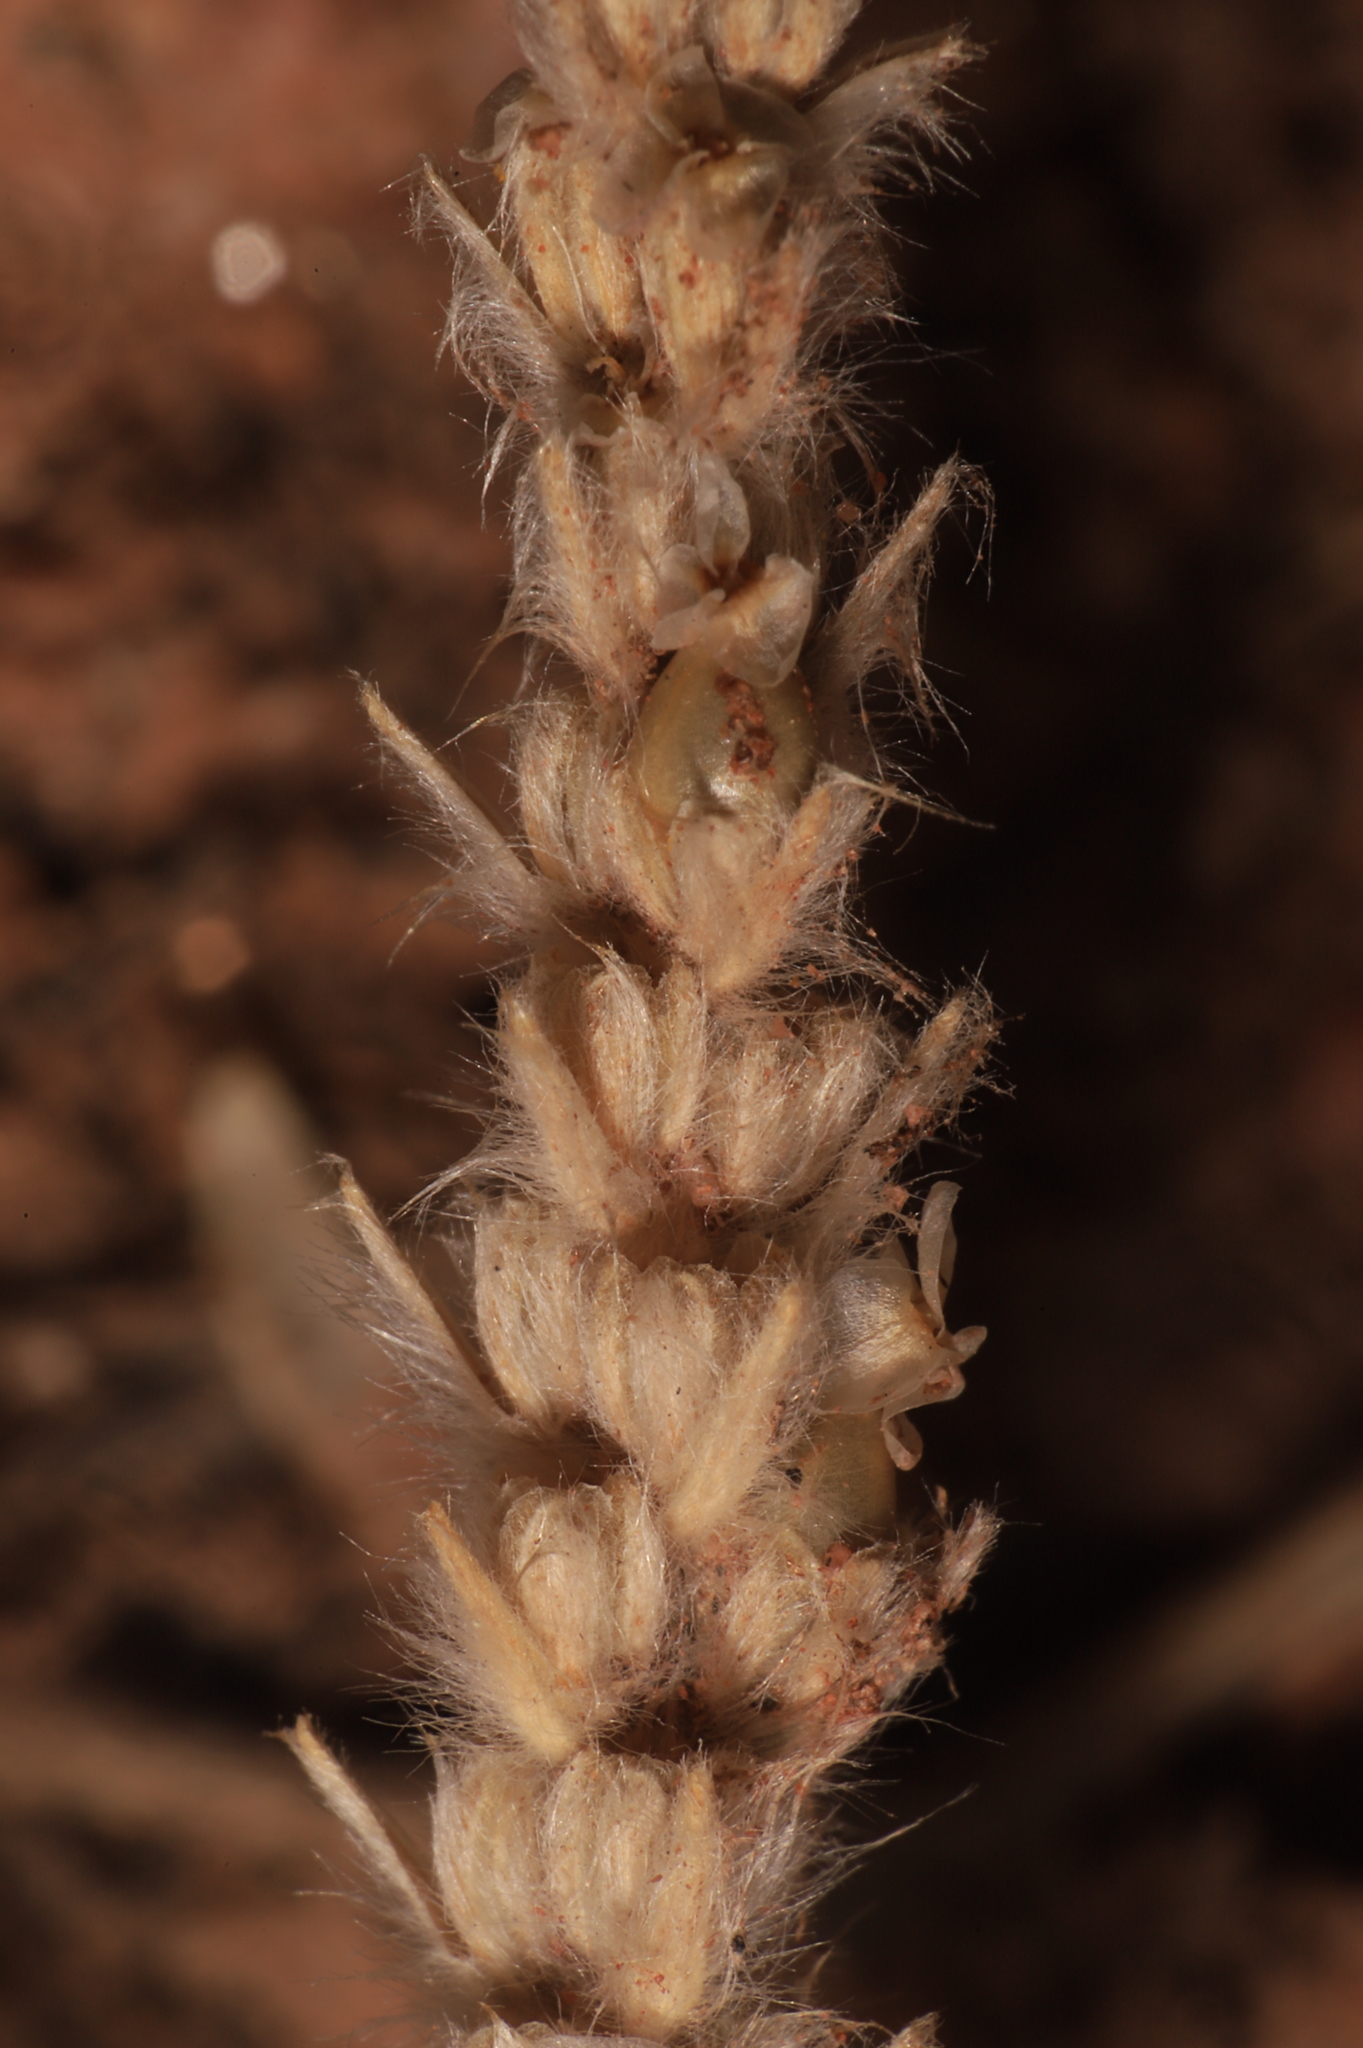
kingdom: Plantae
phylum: Tracheophyta
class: Magnoliopsida
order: Lamiales
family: Plantaginaceae
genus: Plantago
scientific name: Plantago patagonica
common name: Patagonia indian-wheat
